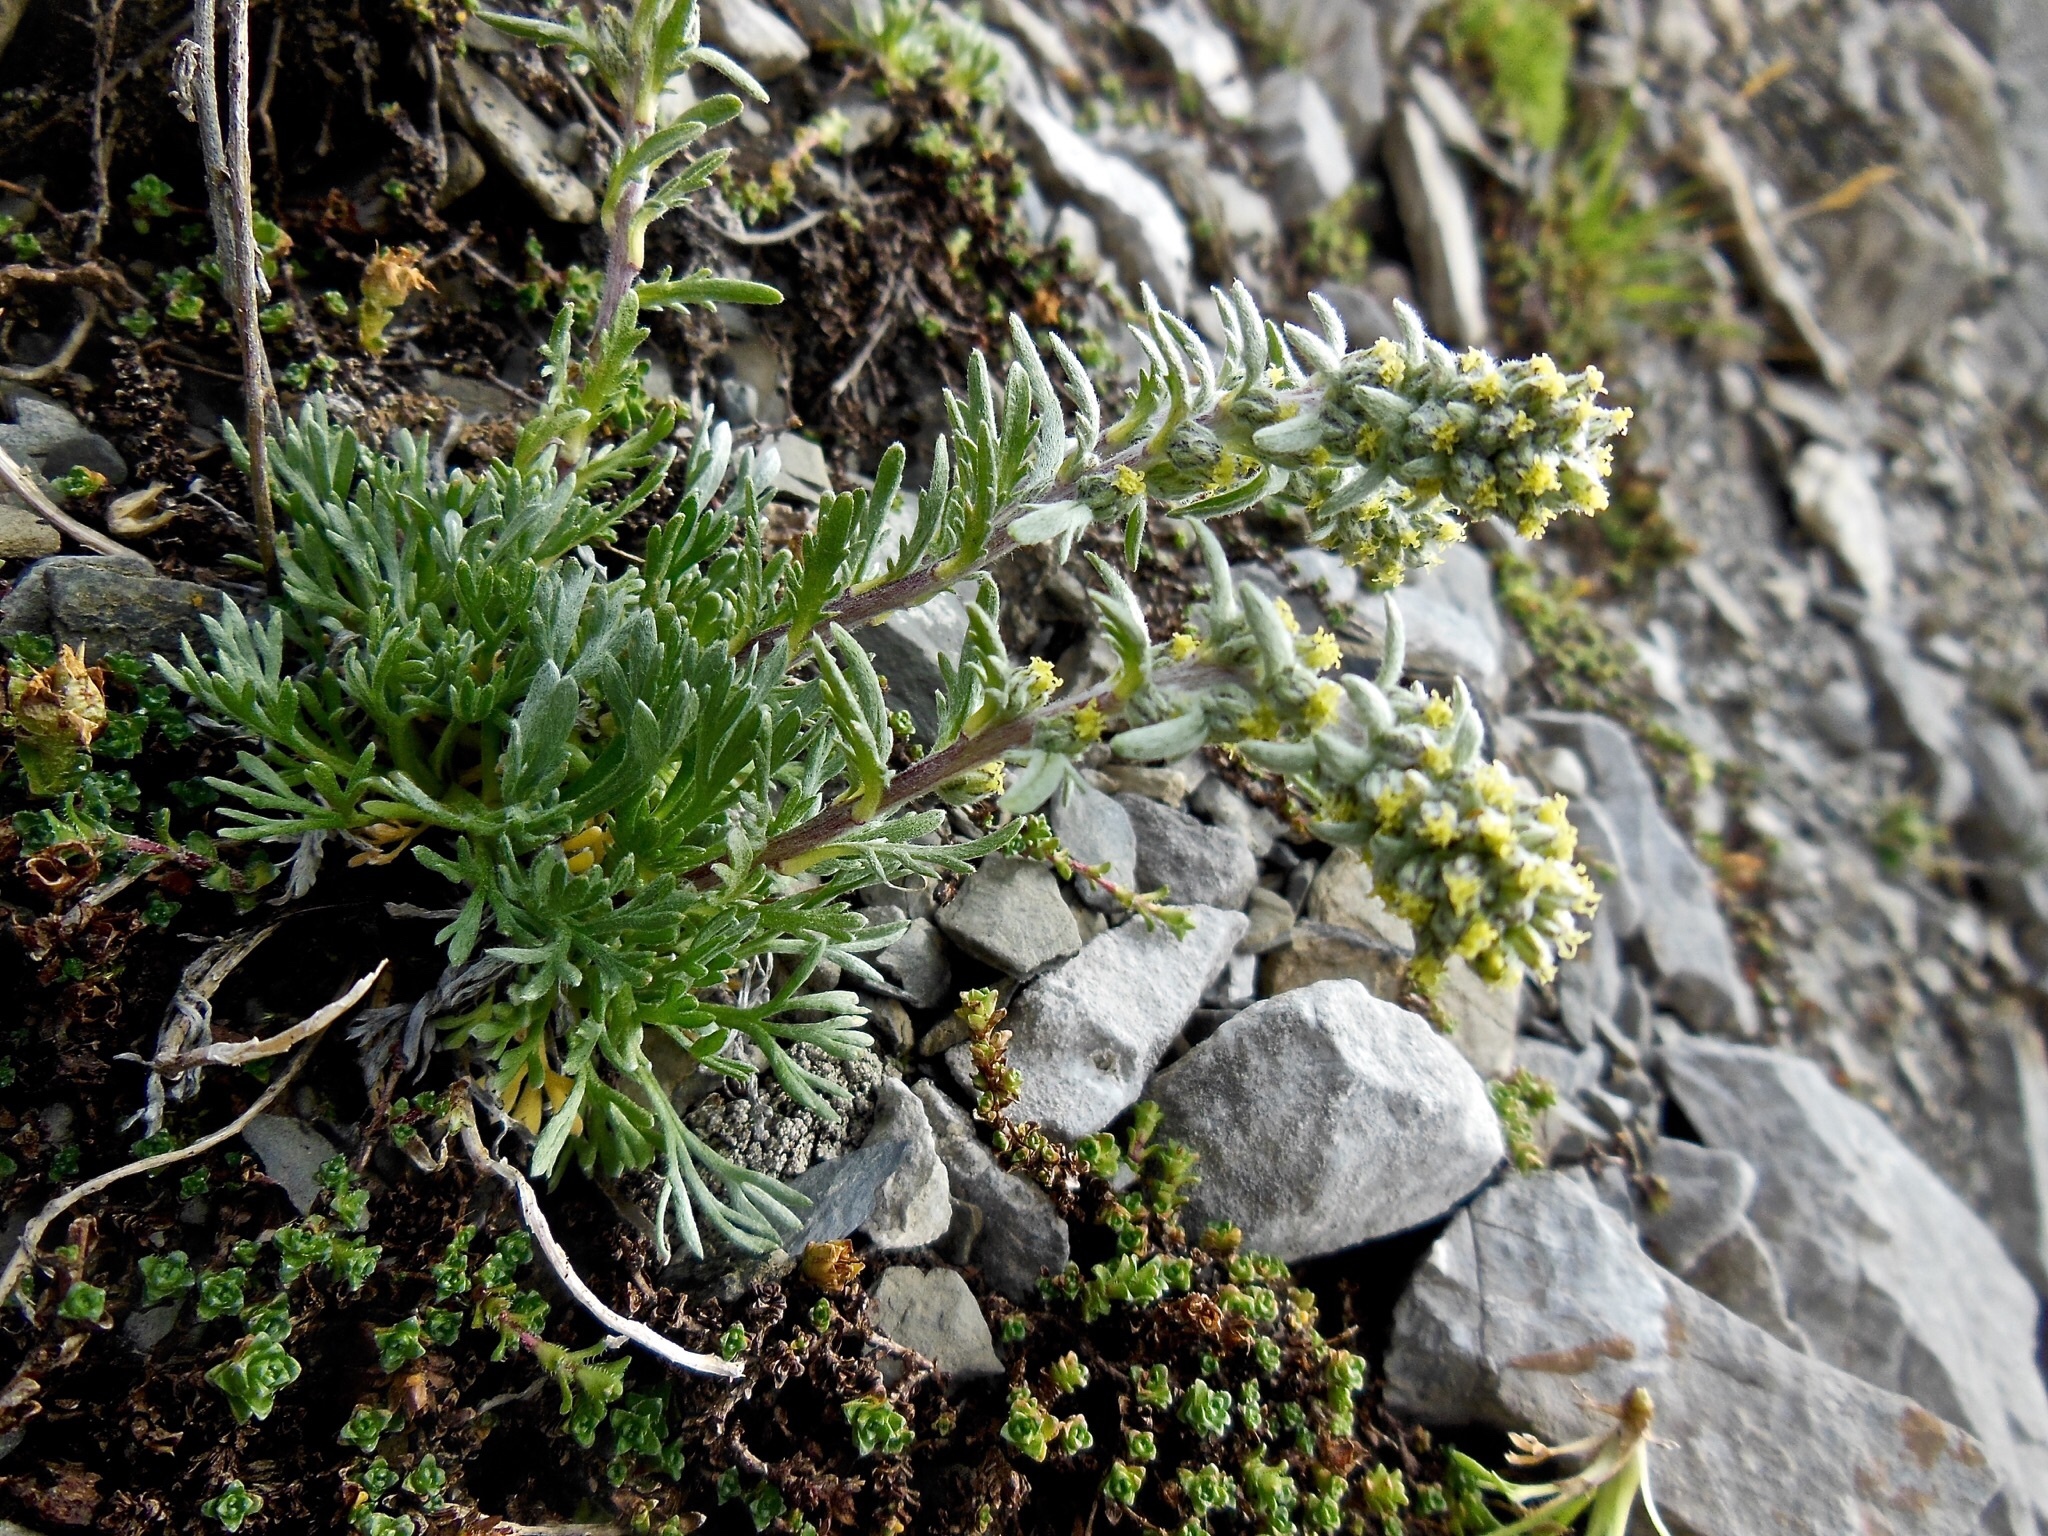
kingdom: Plantae
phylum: Tracheophyta
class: Magnoliopsida
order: Asterales
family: Asteraceae
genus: Artemisia
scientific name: Artemisia genipi
